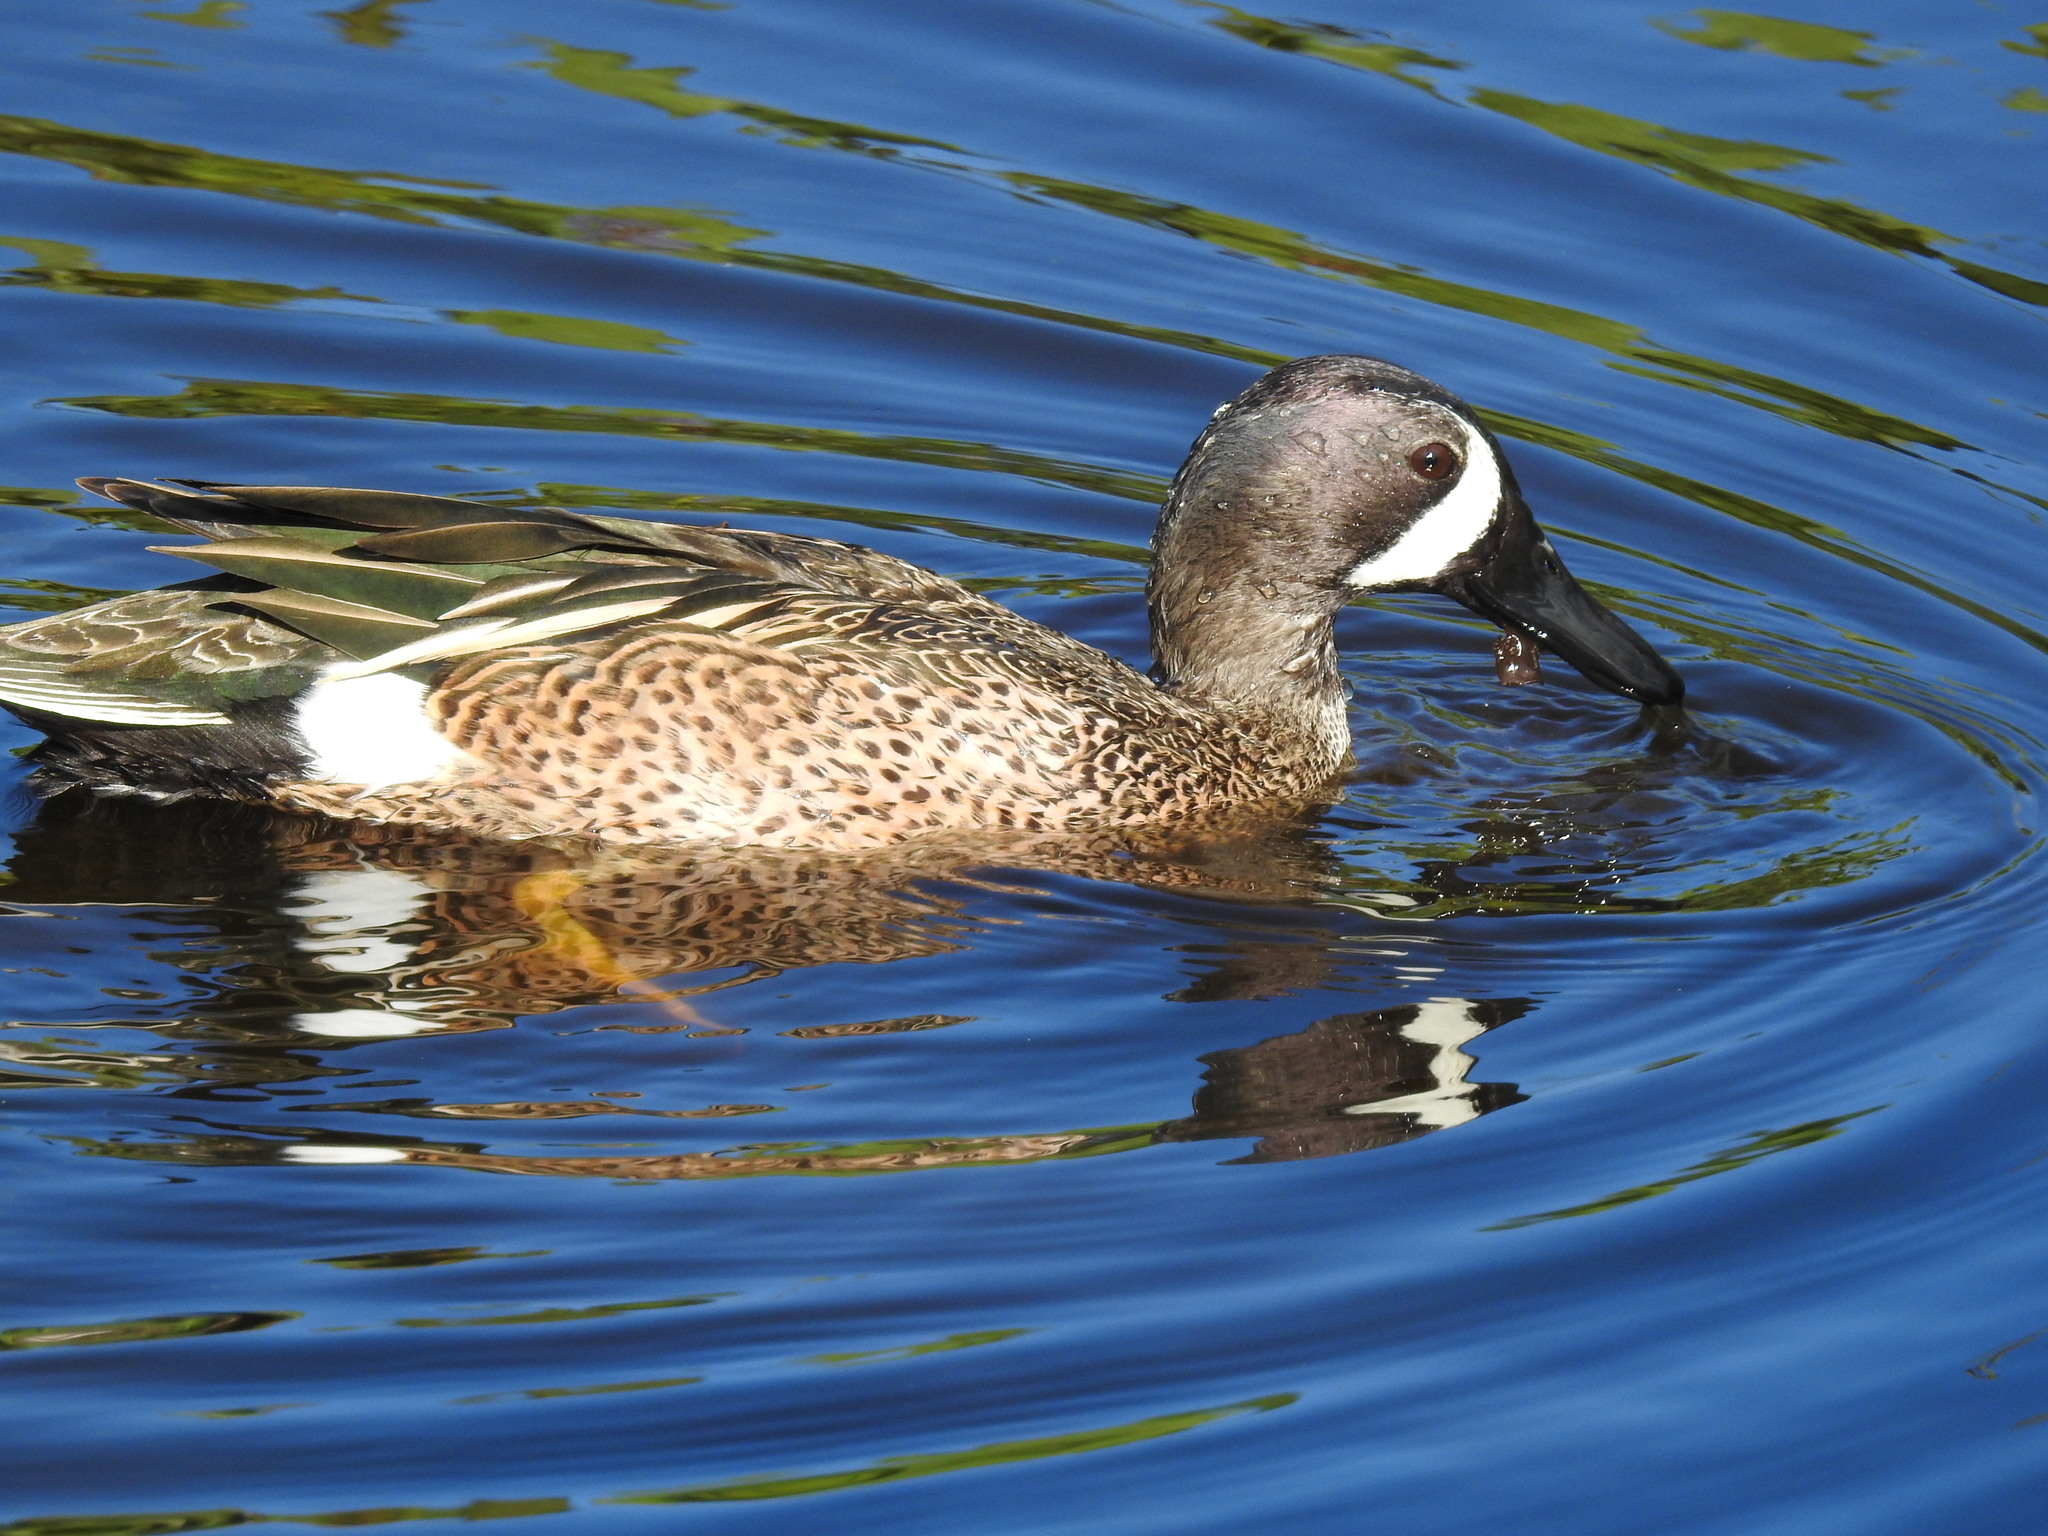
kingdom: Animalia
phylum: Chordata
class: Aves
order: Anseriformes
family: Anatidae
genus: Spatula
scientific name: Spatula discors
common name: Blue-winged teal
